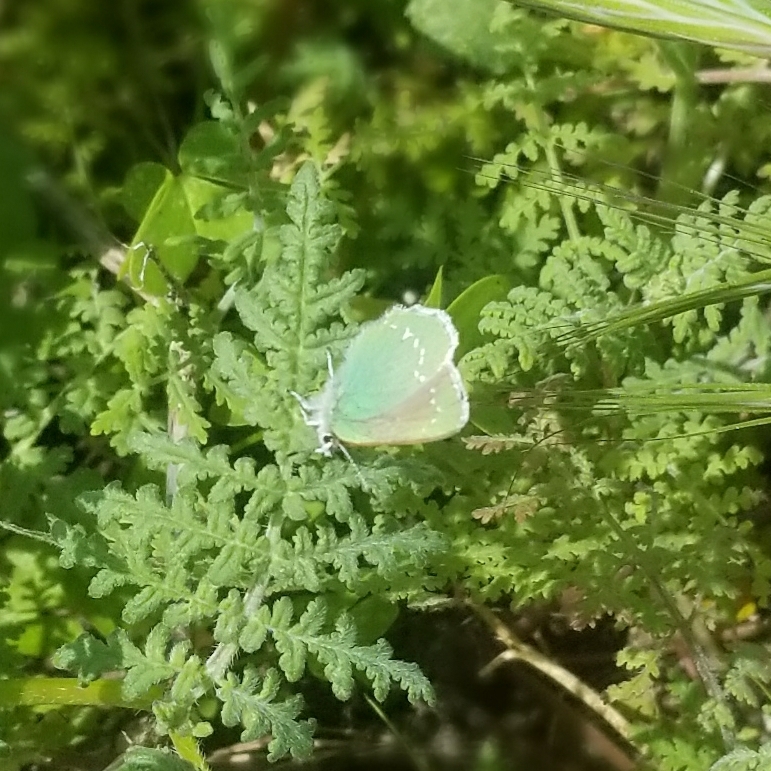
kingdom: Animalia
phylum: Arthropoda
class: Insecta
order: Lepidoptera
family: Lycaenidae
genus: Callophrys
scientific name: Callophrys viridis
